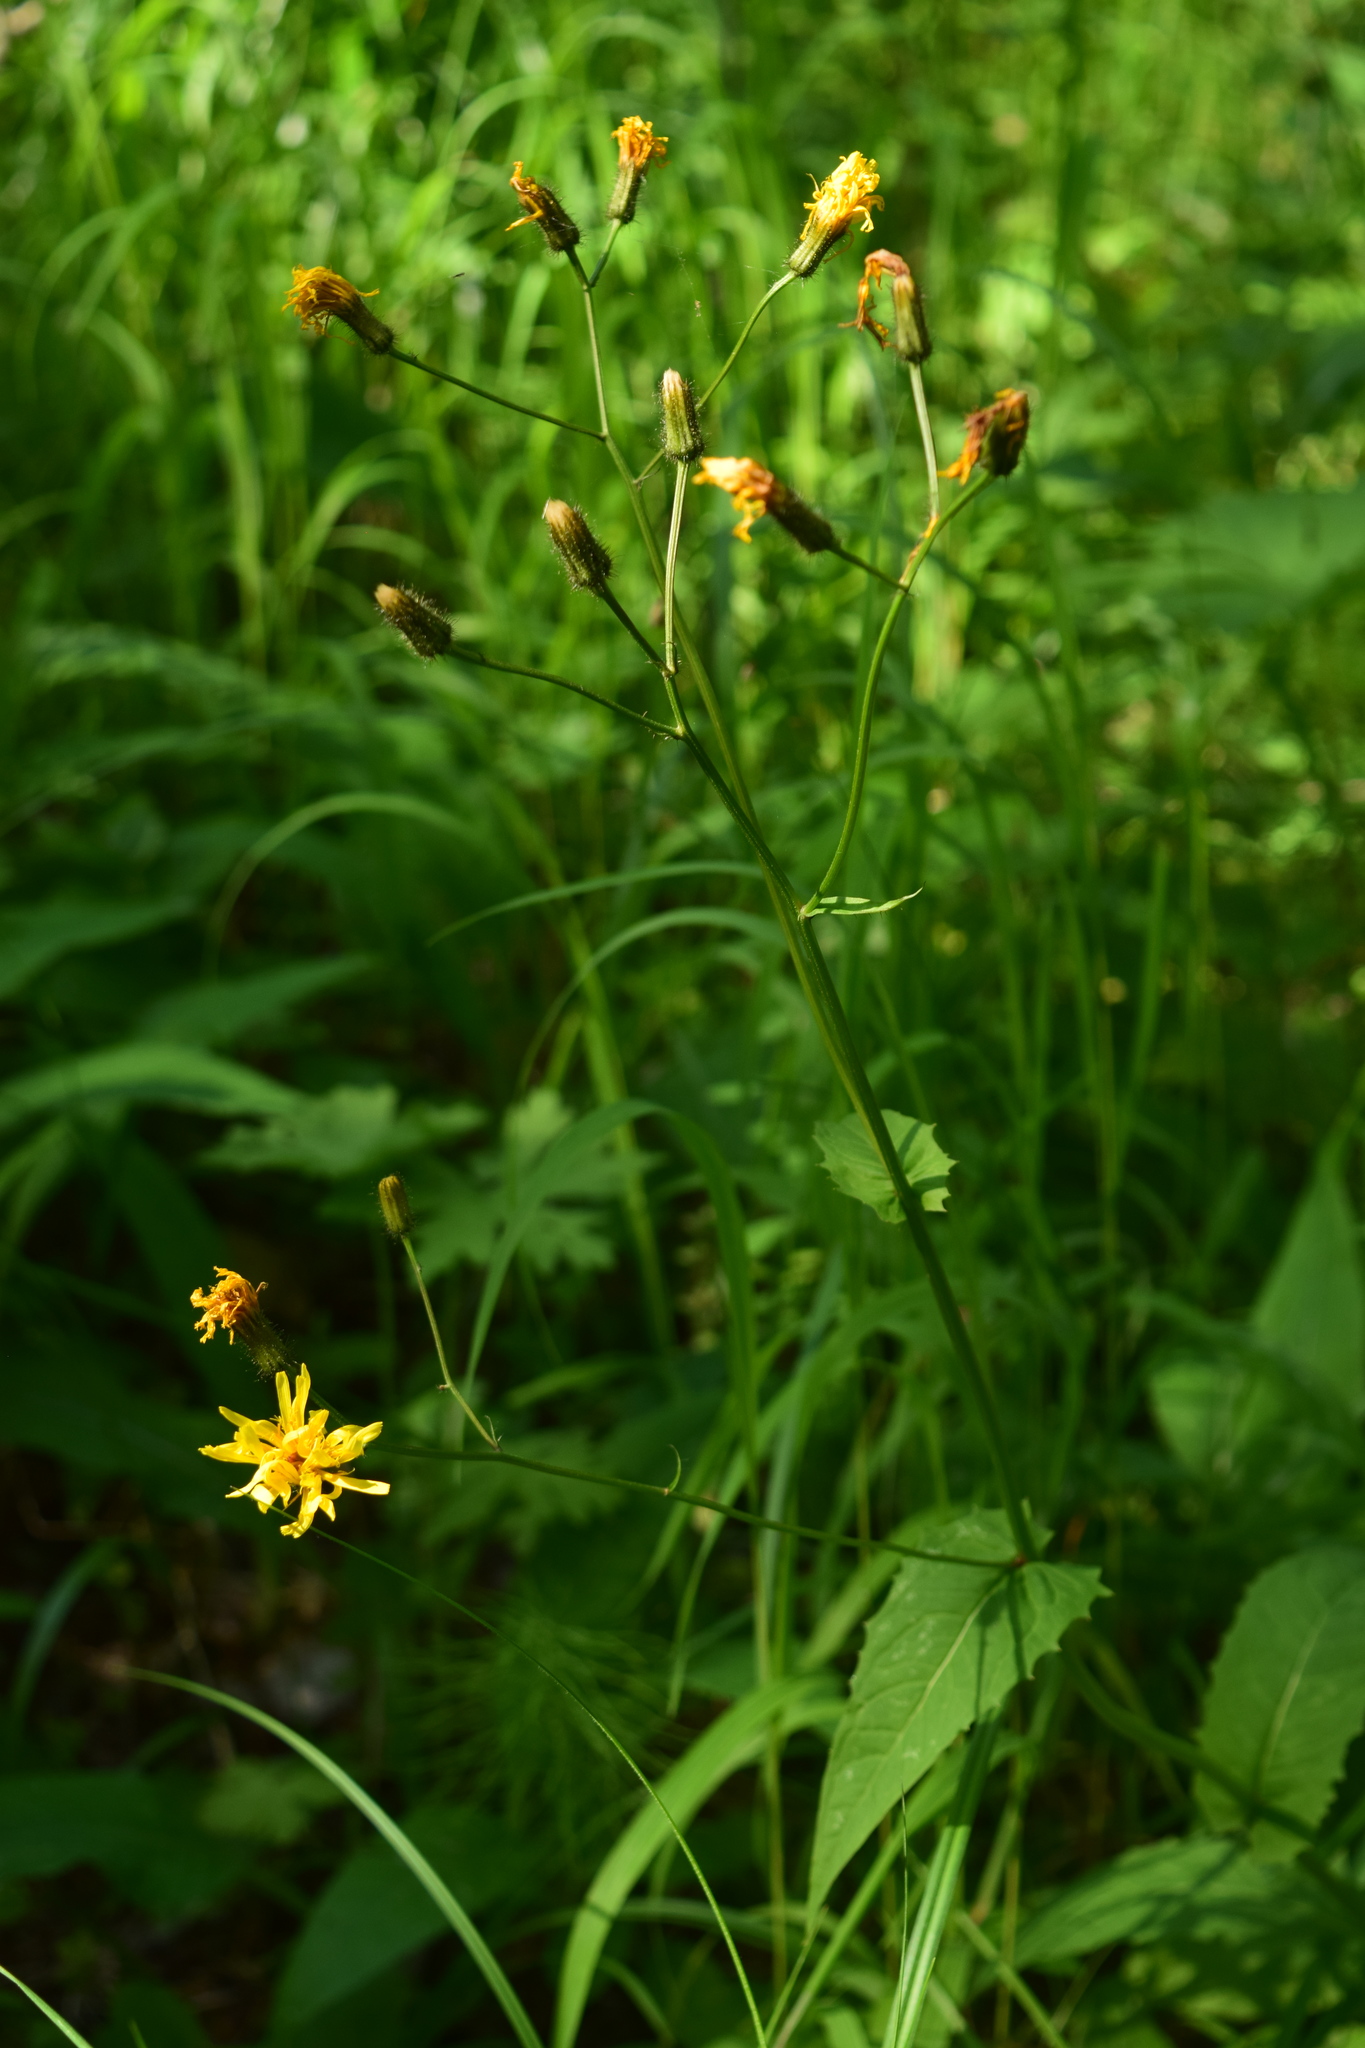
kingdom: Plantae
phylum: Tracheophyta
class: Magnoliopsida
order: Asterales
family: Asteraceae
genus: Crepis
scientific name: Crepis paludosa
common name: Marsh hawk's-beard
